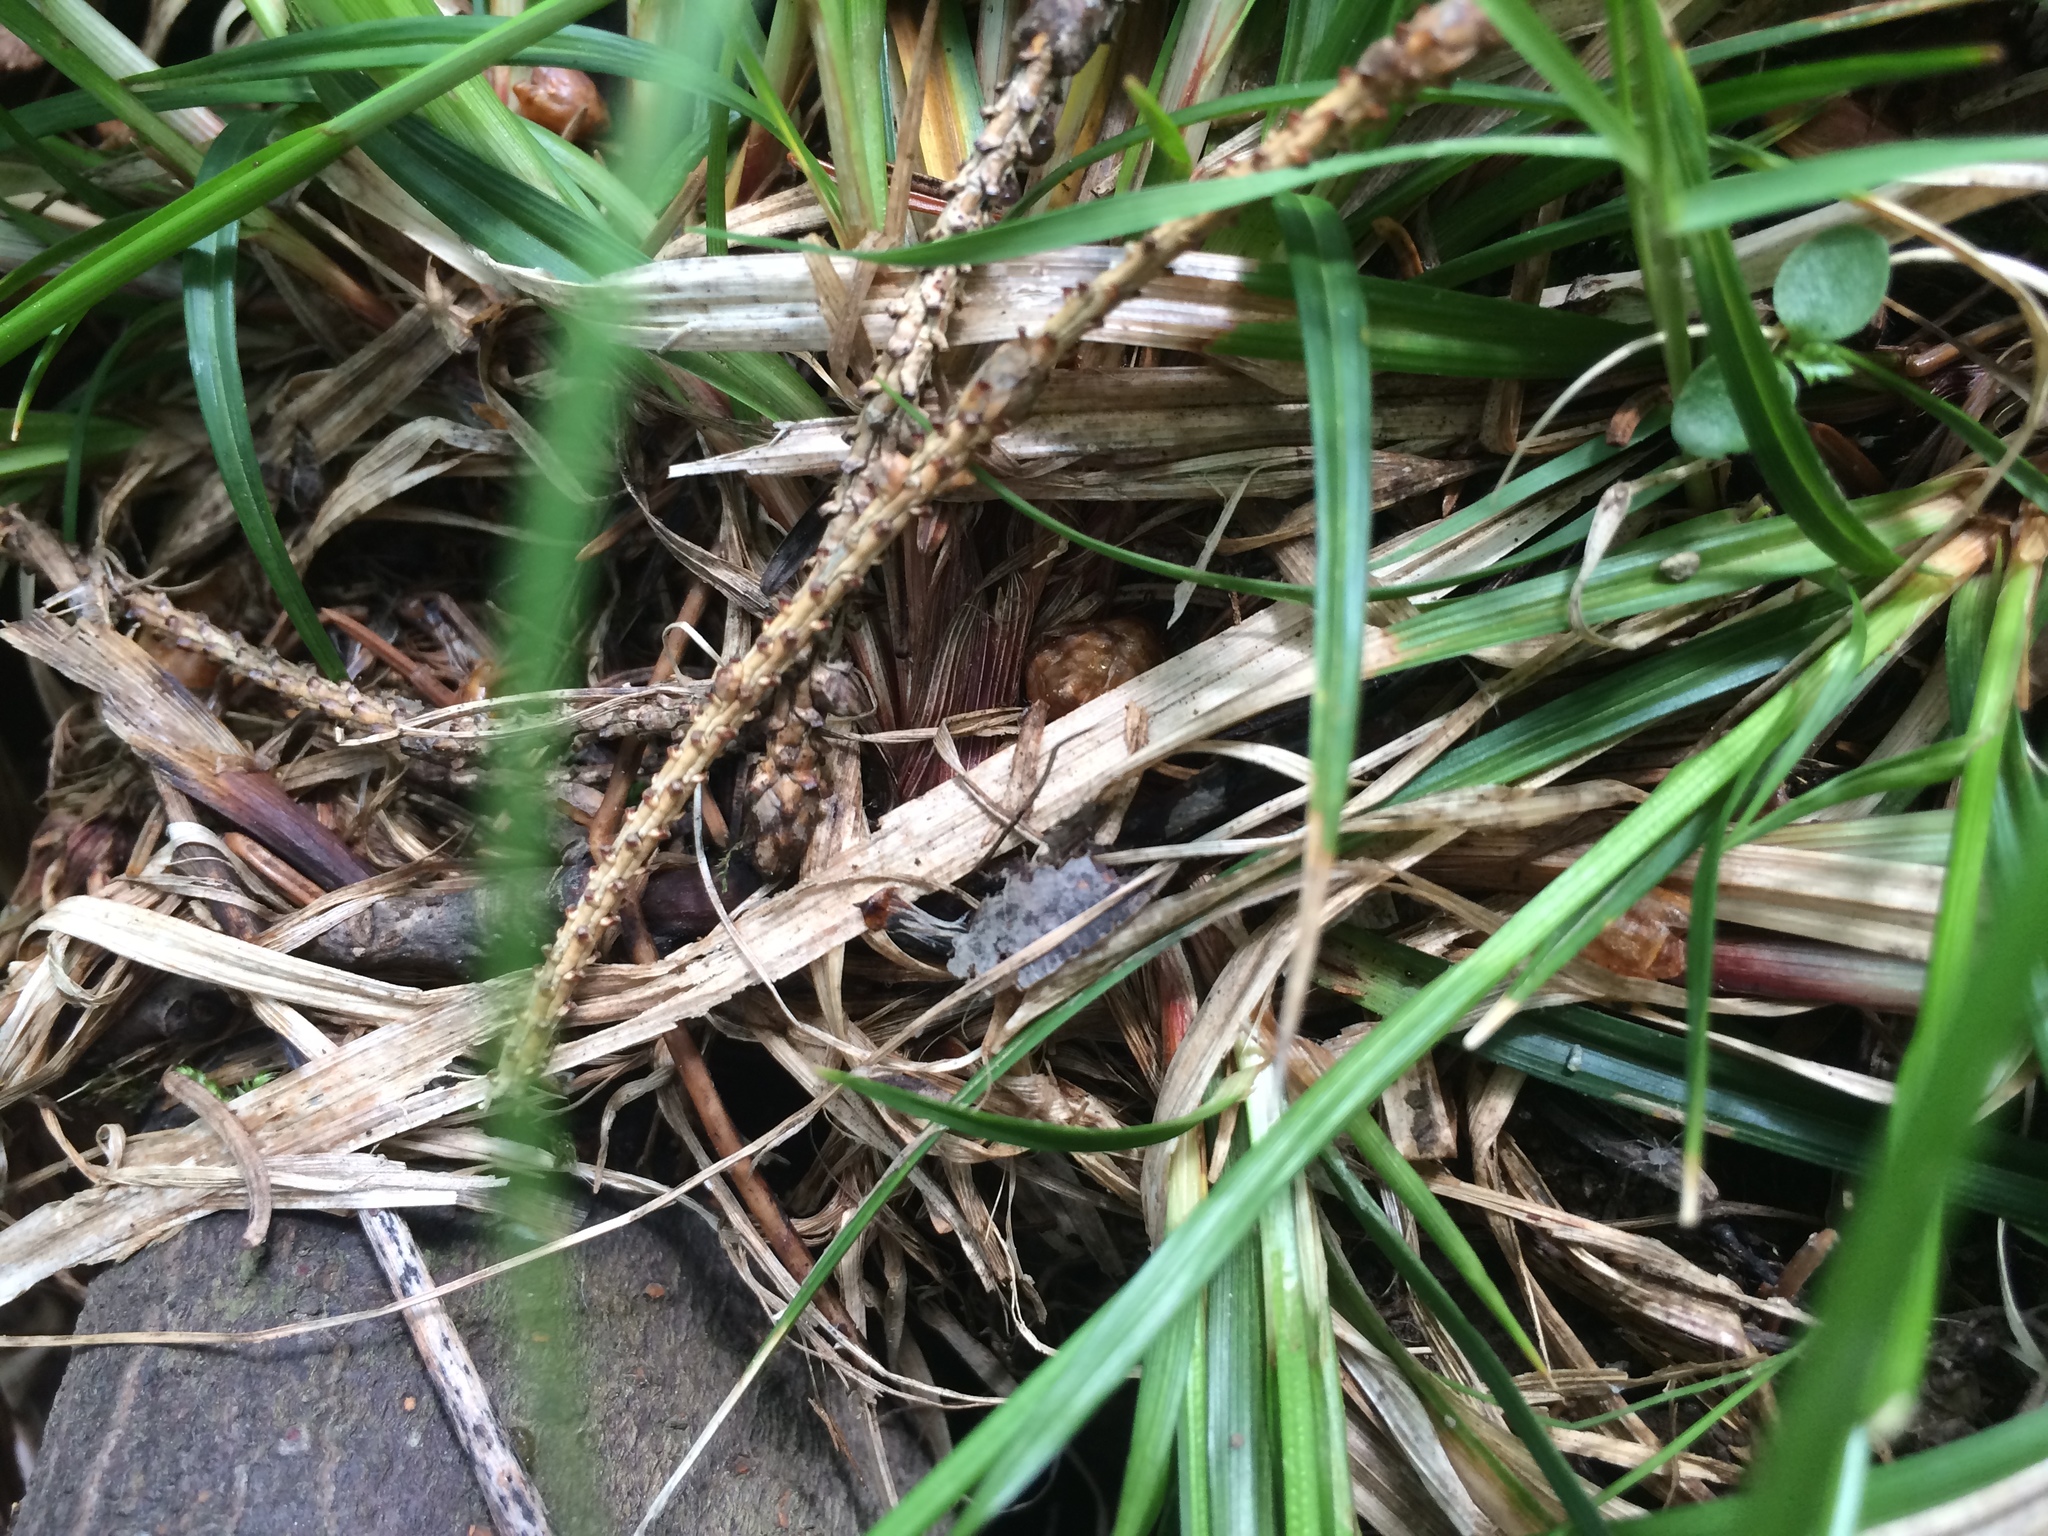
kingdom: Plantae
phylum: Tracheophyta
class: Liliopsida
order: Poales
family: Cyperaceae
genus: Carex
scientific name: Carex communis
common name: Colonial oak sedge
